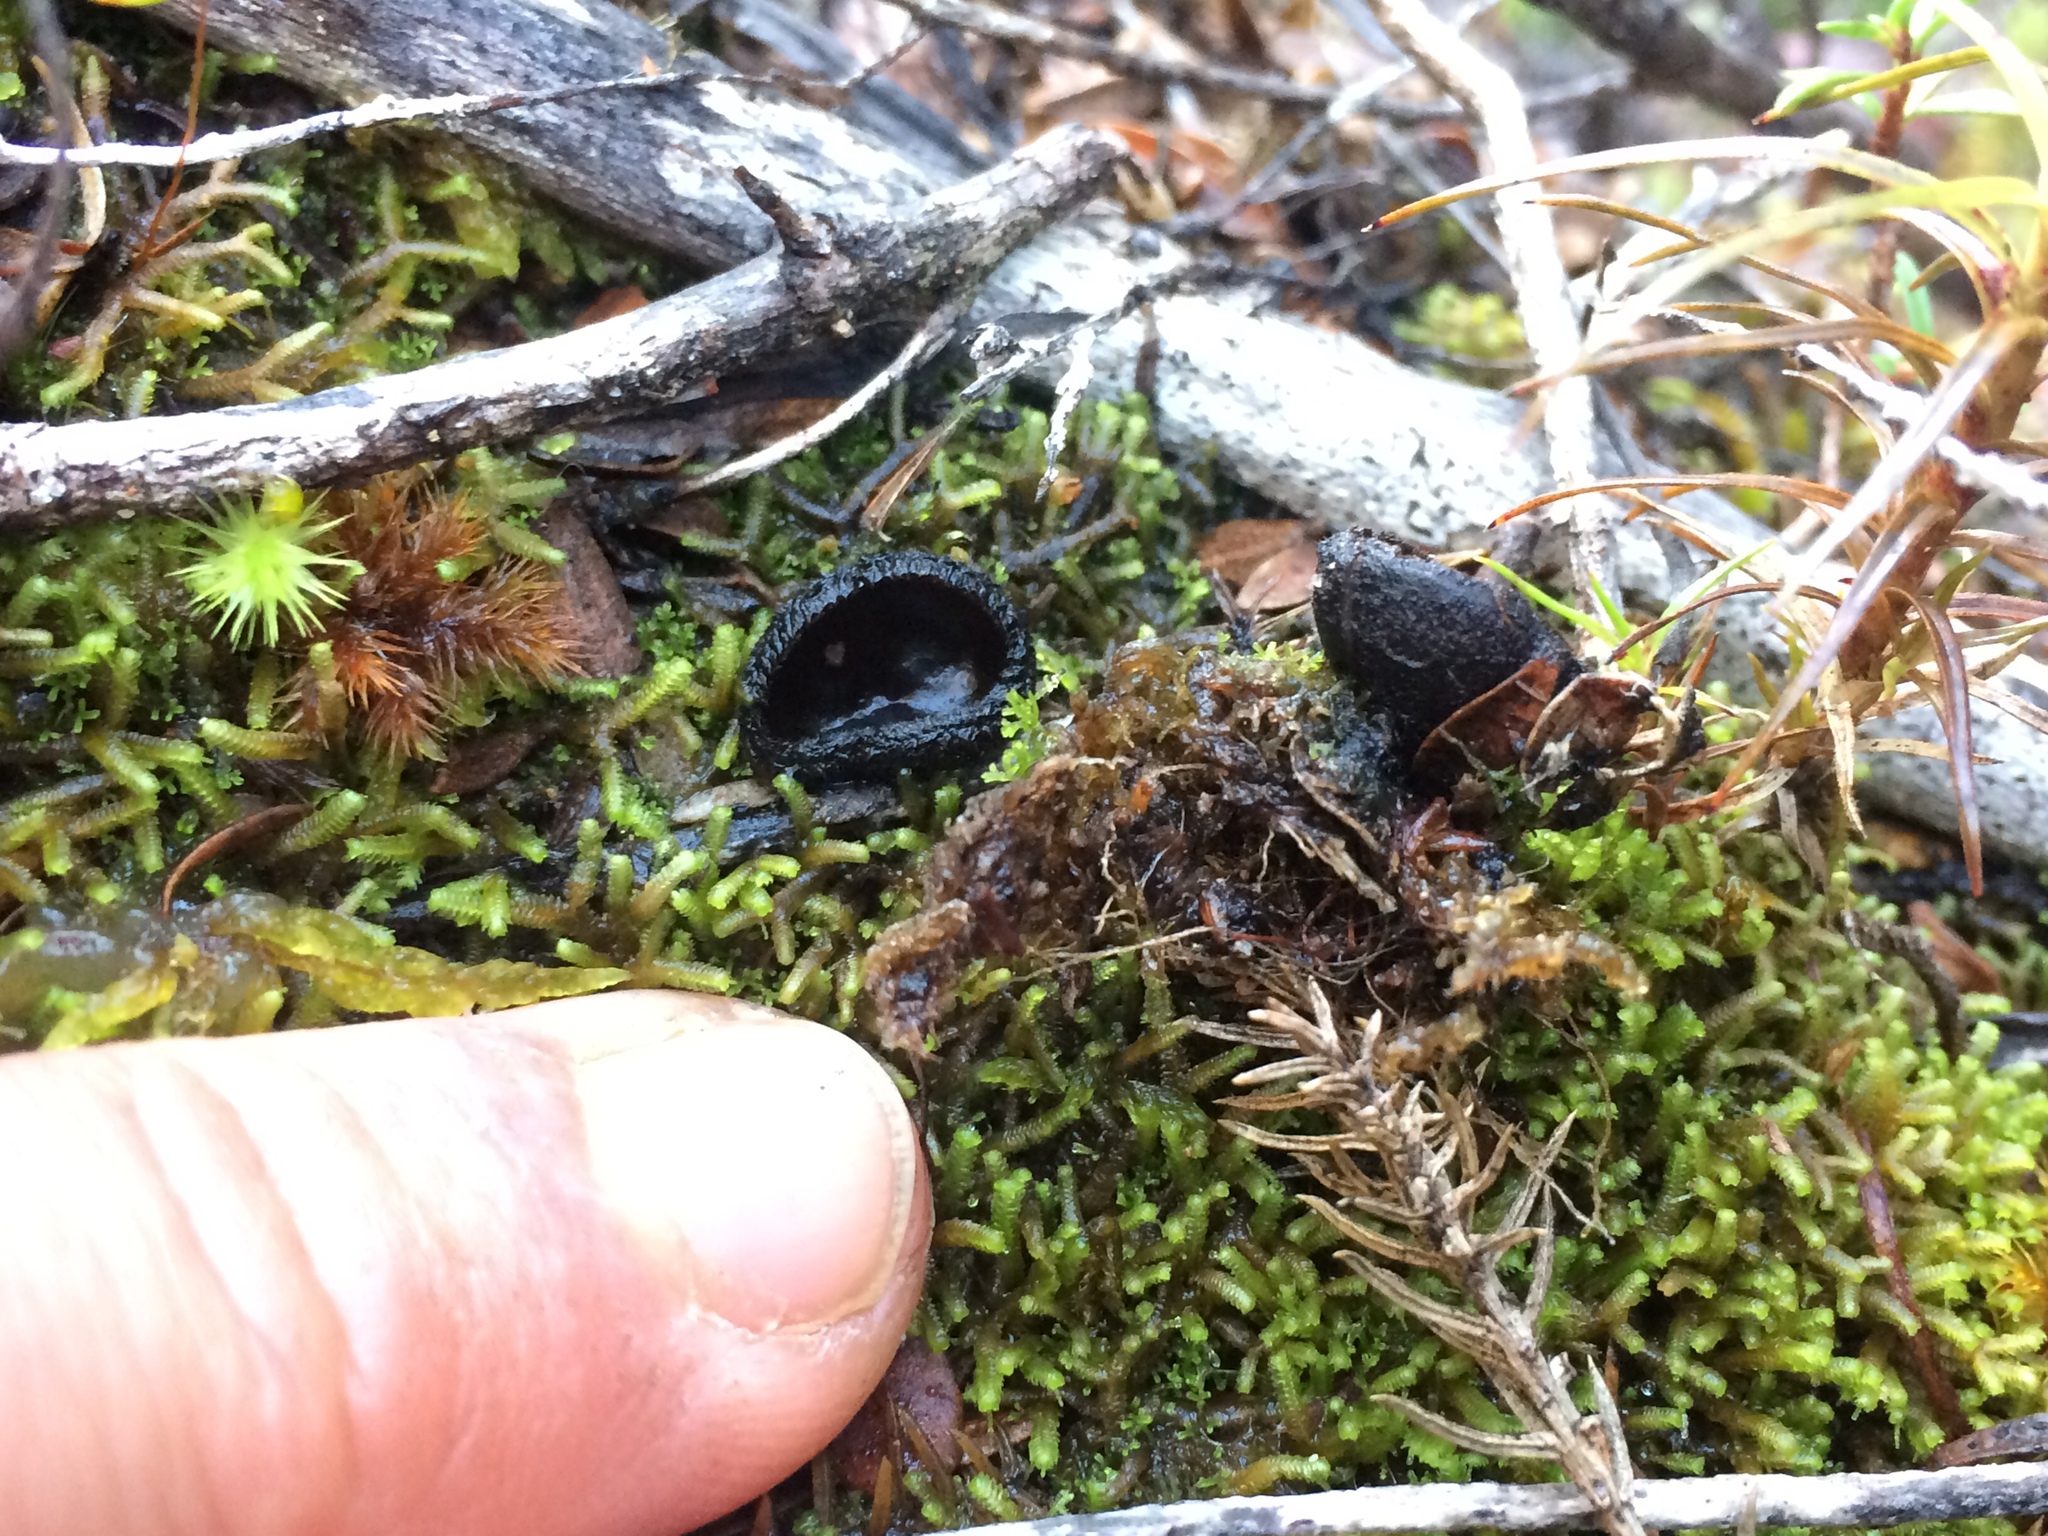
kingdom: Fungi
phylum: Ascomycota
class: Pezizomycetes
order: Pezizales
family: Sarcosomataceae
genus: Plectania
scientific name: Plectania rhytidia
